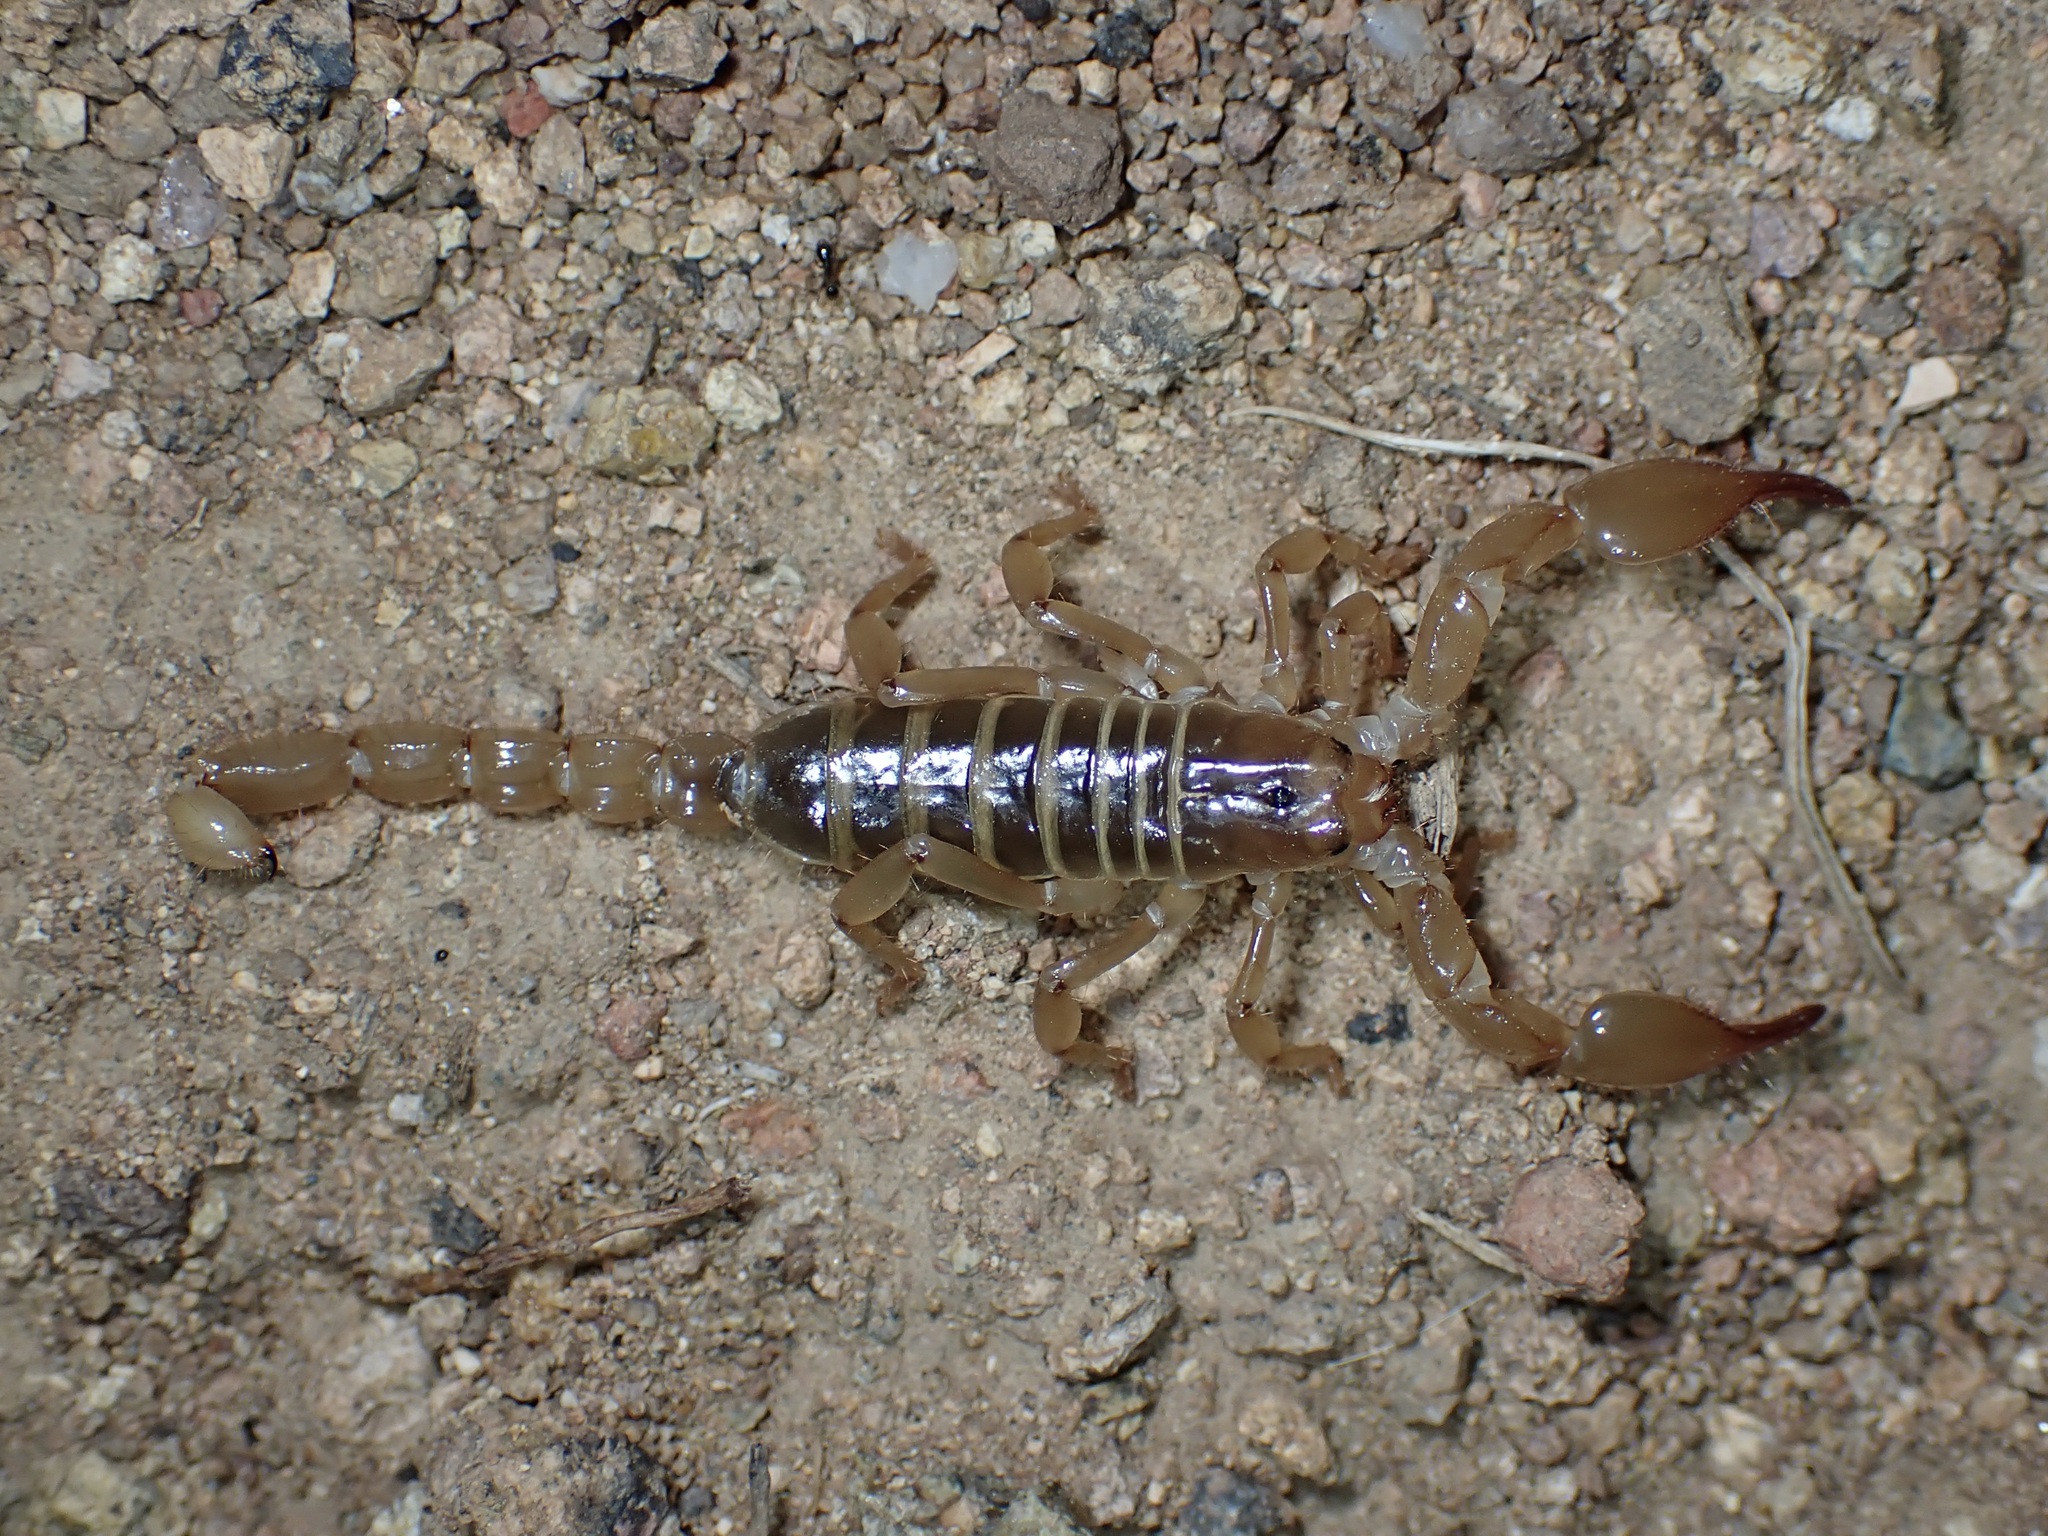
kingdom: Animalia
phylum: Arthropoda
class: Arachnida
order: Scorpiones
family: Diplocentridae
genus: Diplocentrus
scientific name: Diplocentrus spitzeri
